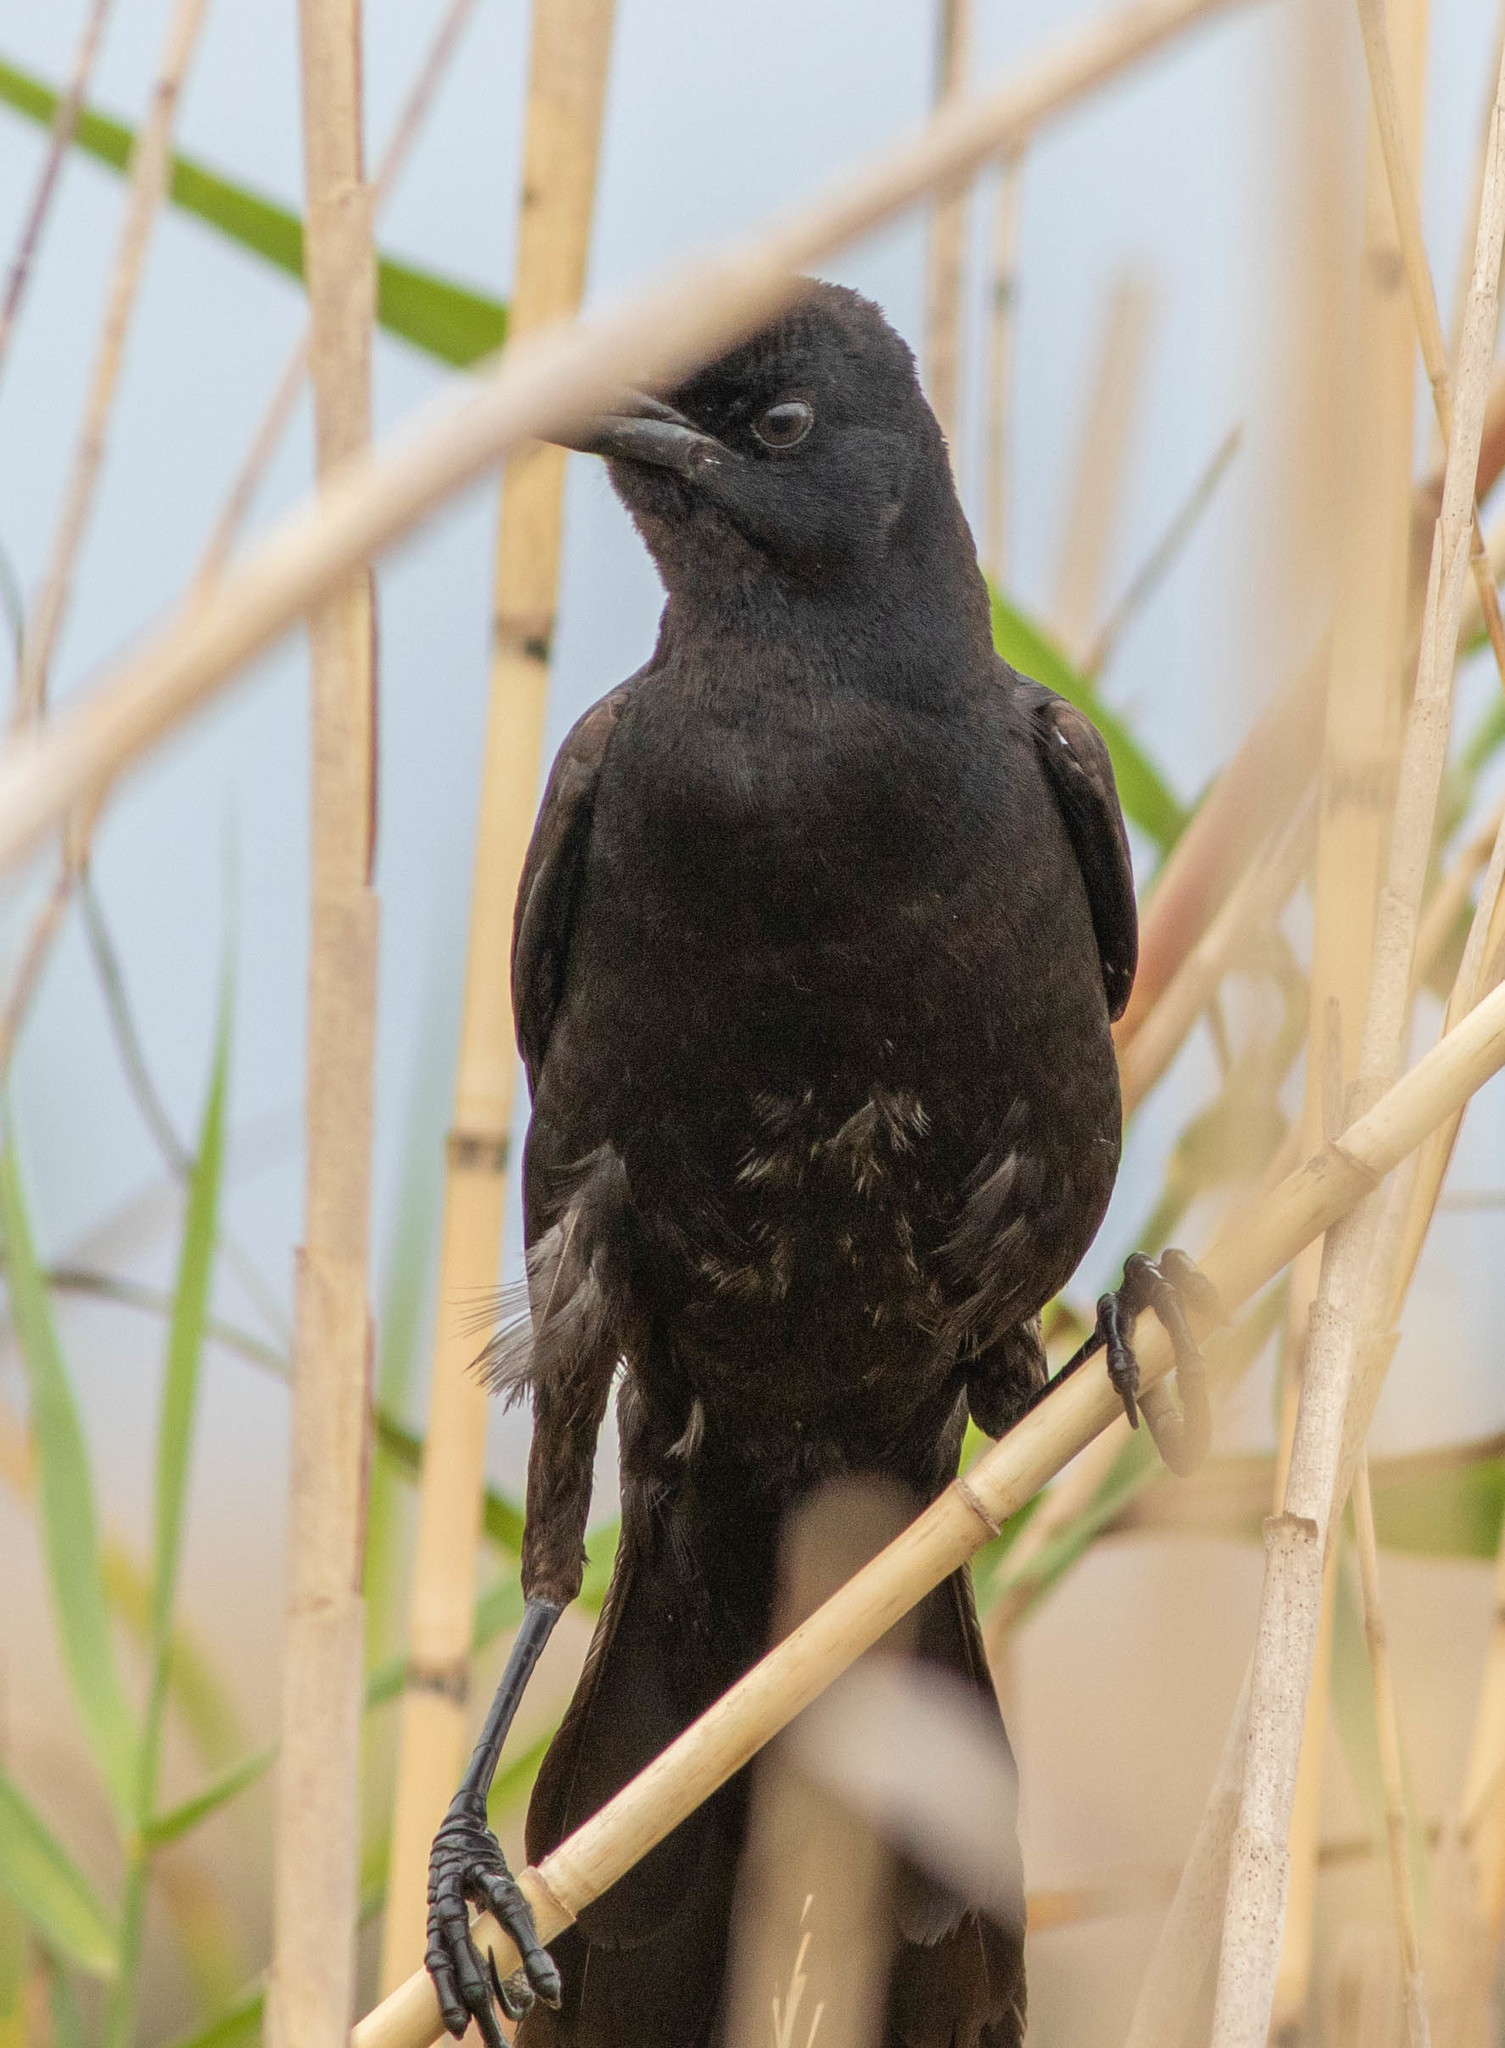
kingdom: Animalia
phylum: Chordata
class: Aves
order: Passeriformes
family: Icteridae
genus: Quiscalus
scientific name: Quiscalus major
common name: Boat-tailed grackle
